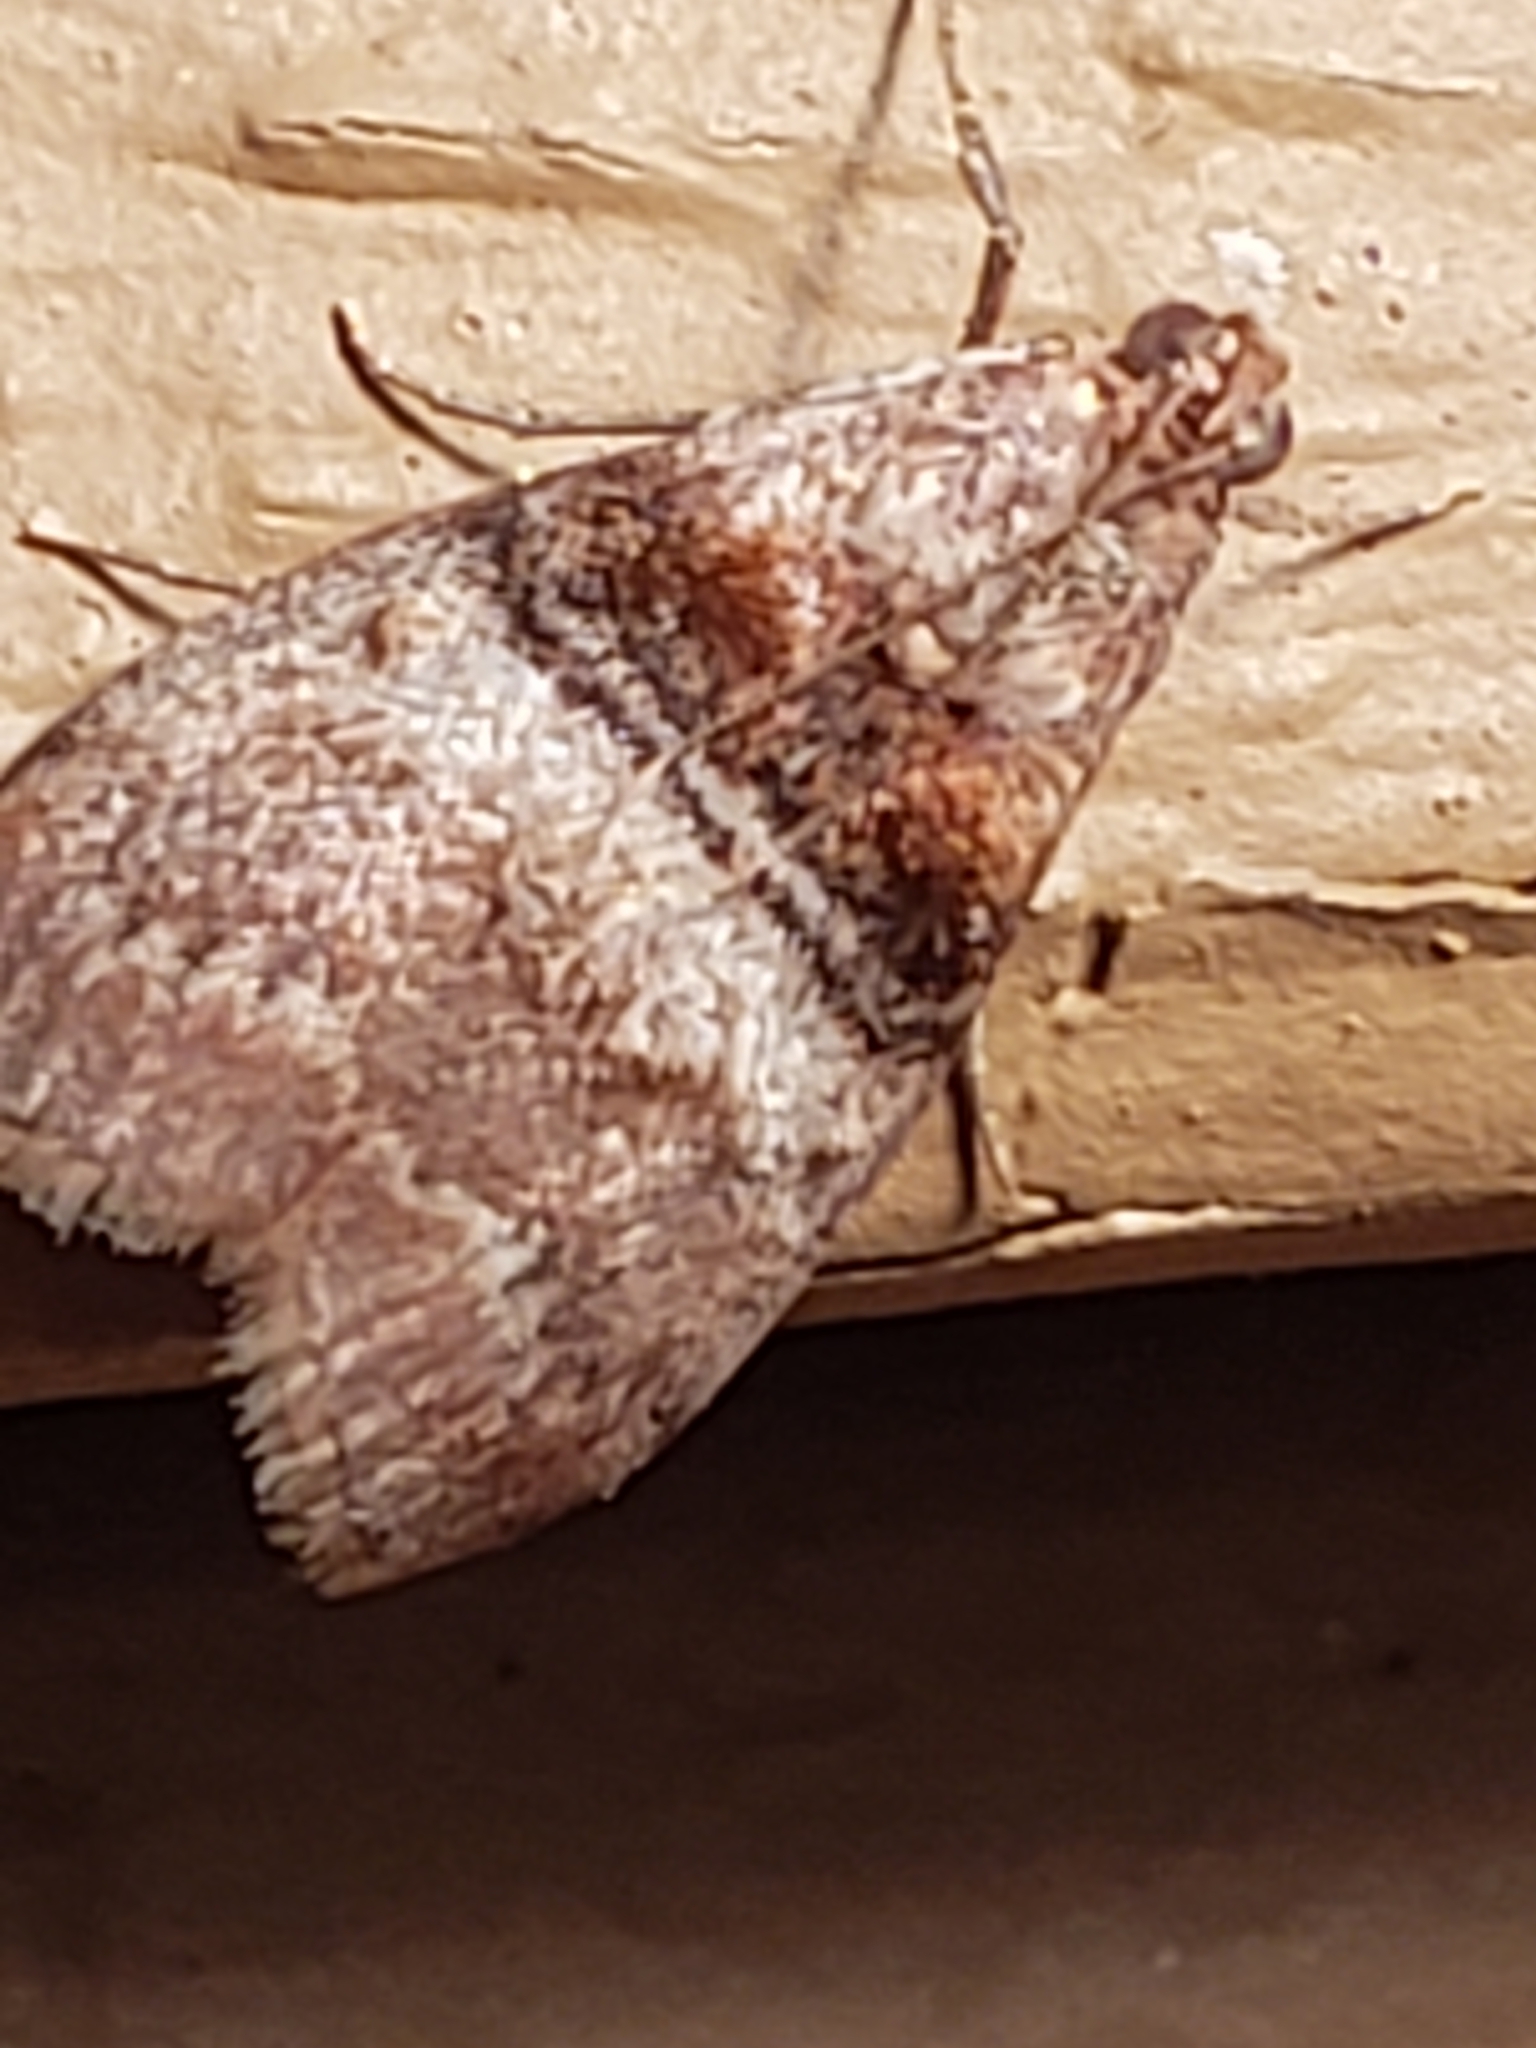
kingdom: Animalia
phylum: Arthropoda
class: Insecta
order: Lepidoptera
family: Pyralidae
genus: Pococera
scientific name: Pococera militella
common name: Sycamore webworm moth
